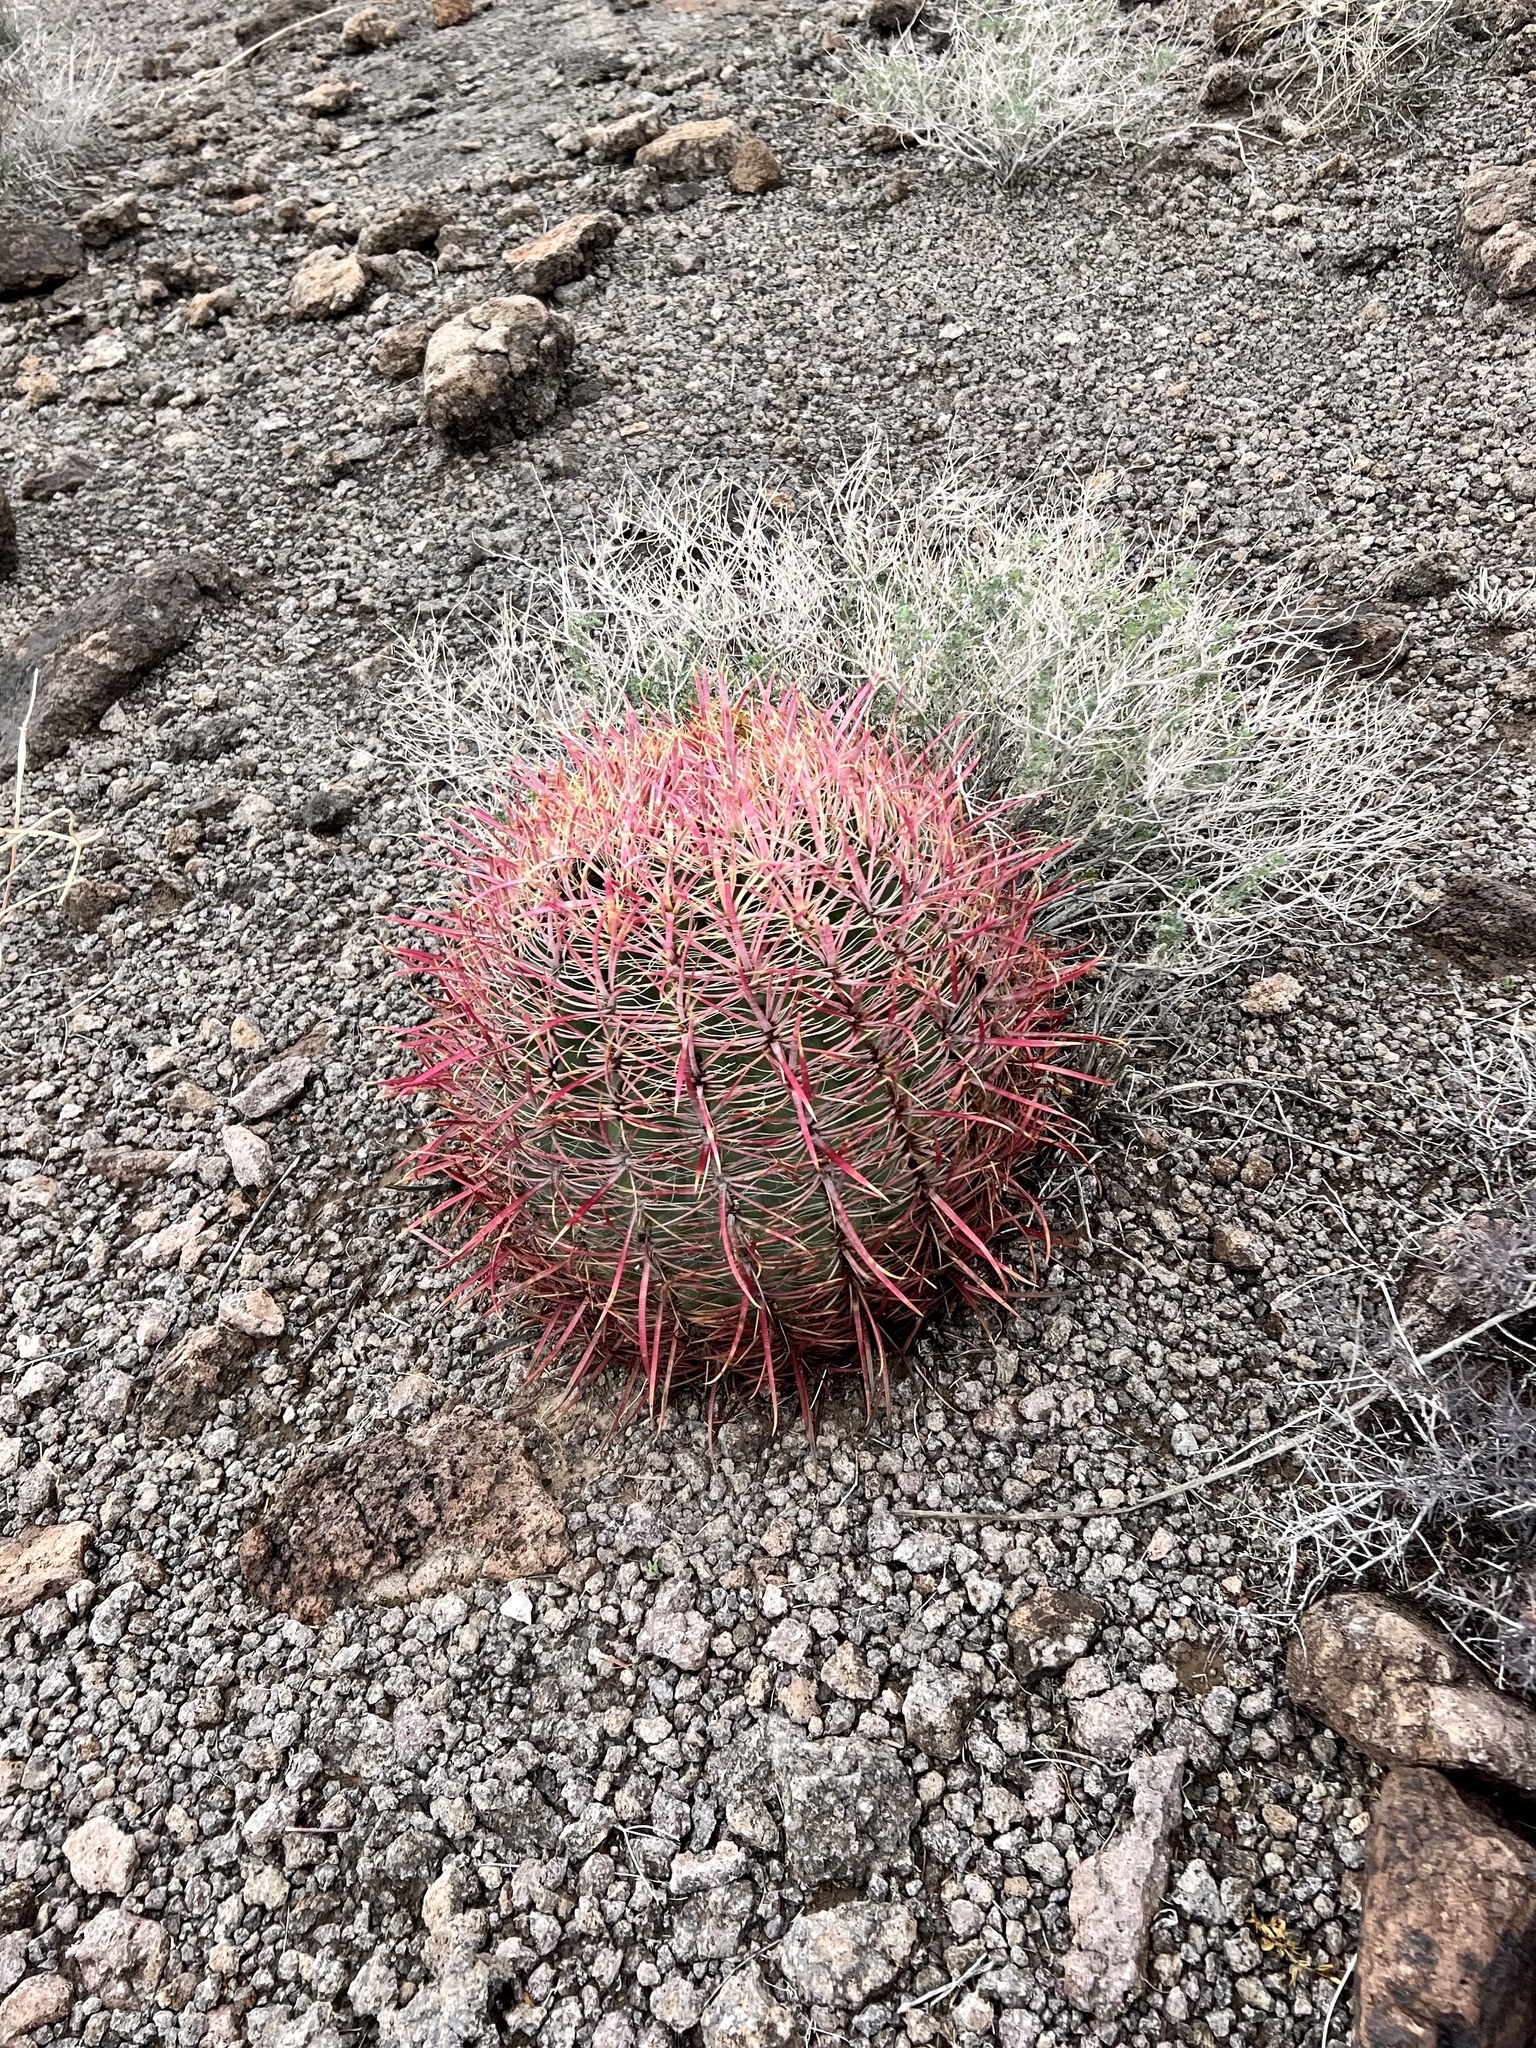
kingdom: Plantae
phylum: Tracheophyta
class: Magnoliopsida
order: Caryophyllales
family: Cactaceae
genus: Ferocactus
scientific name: Ferocactus cylindraceus
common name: California barrel cactus
